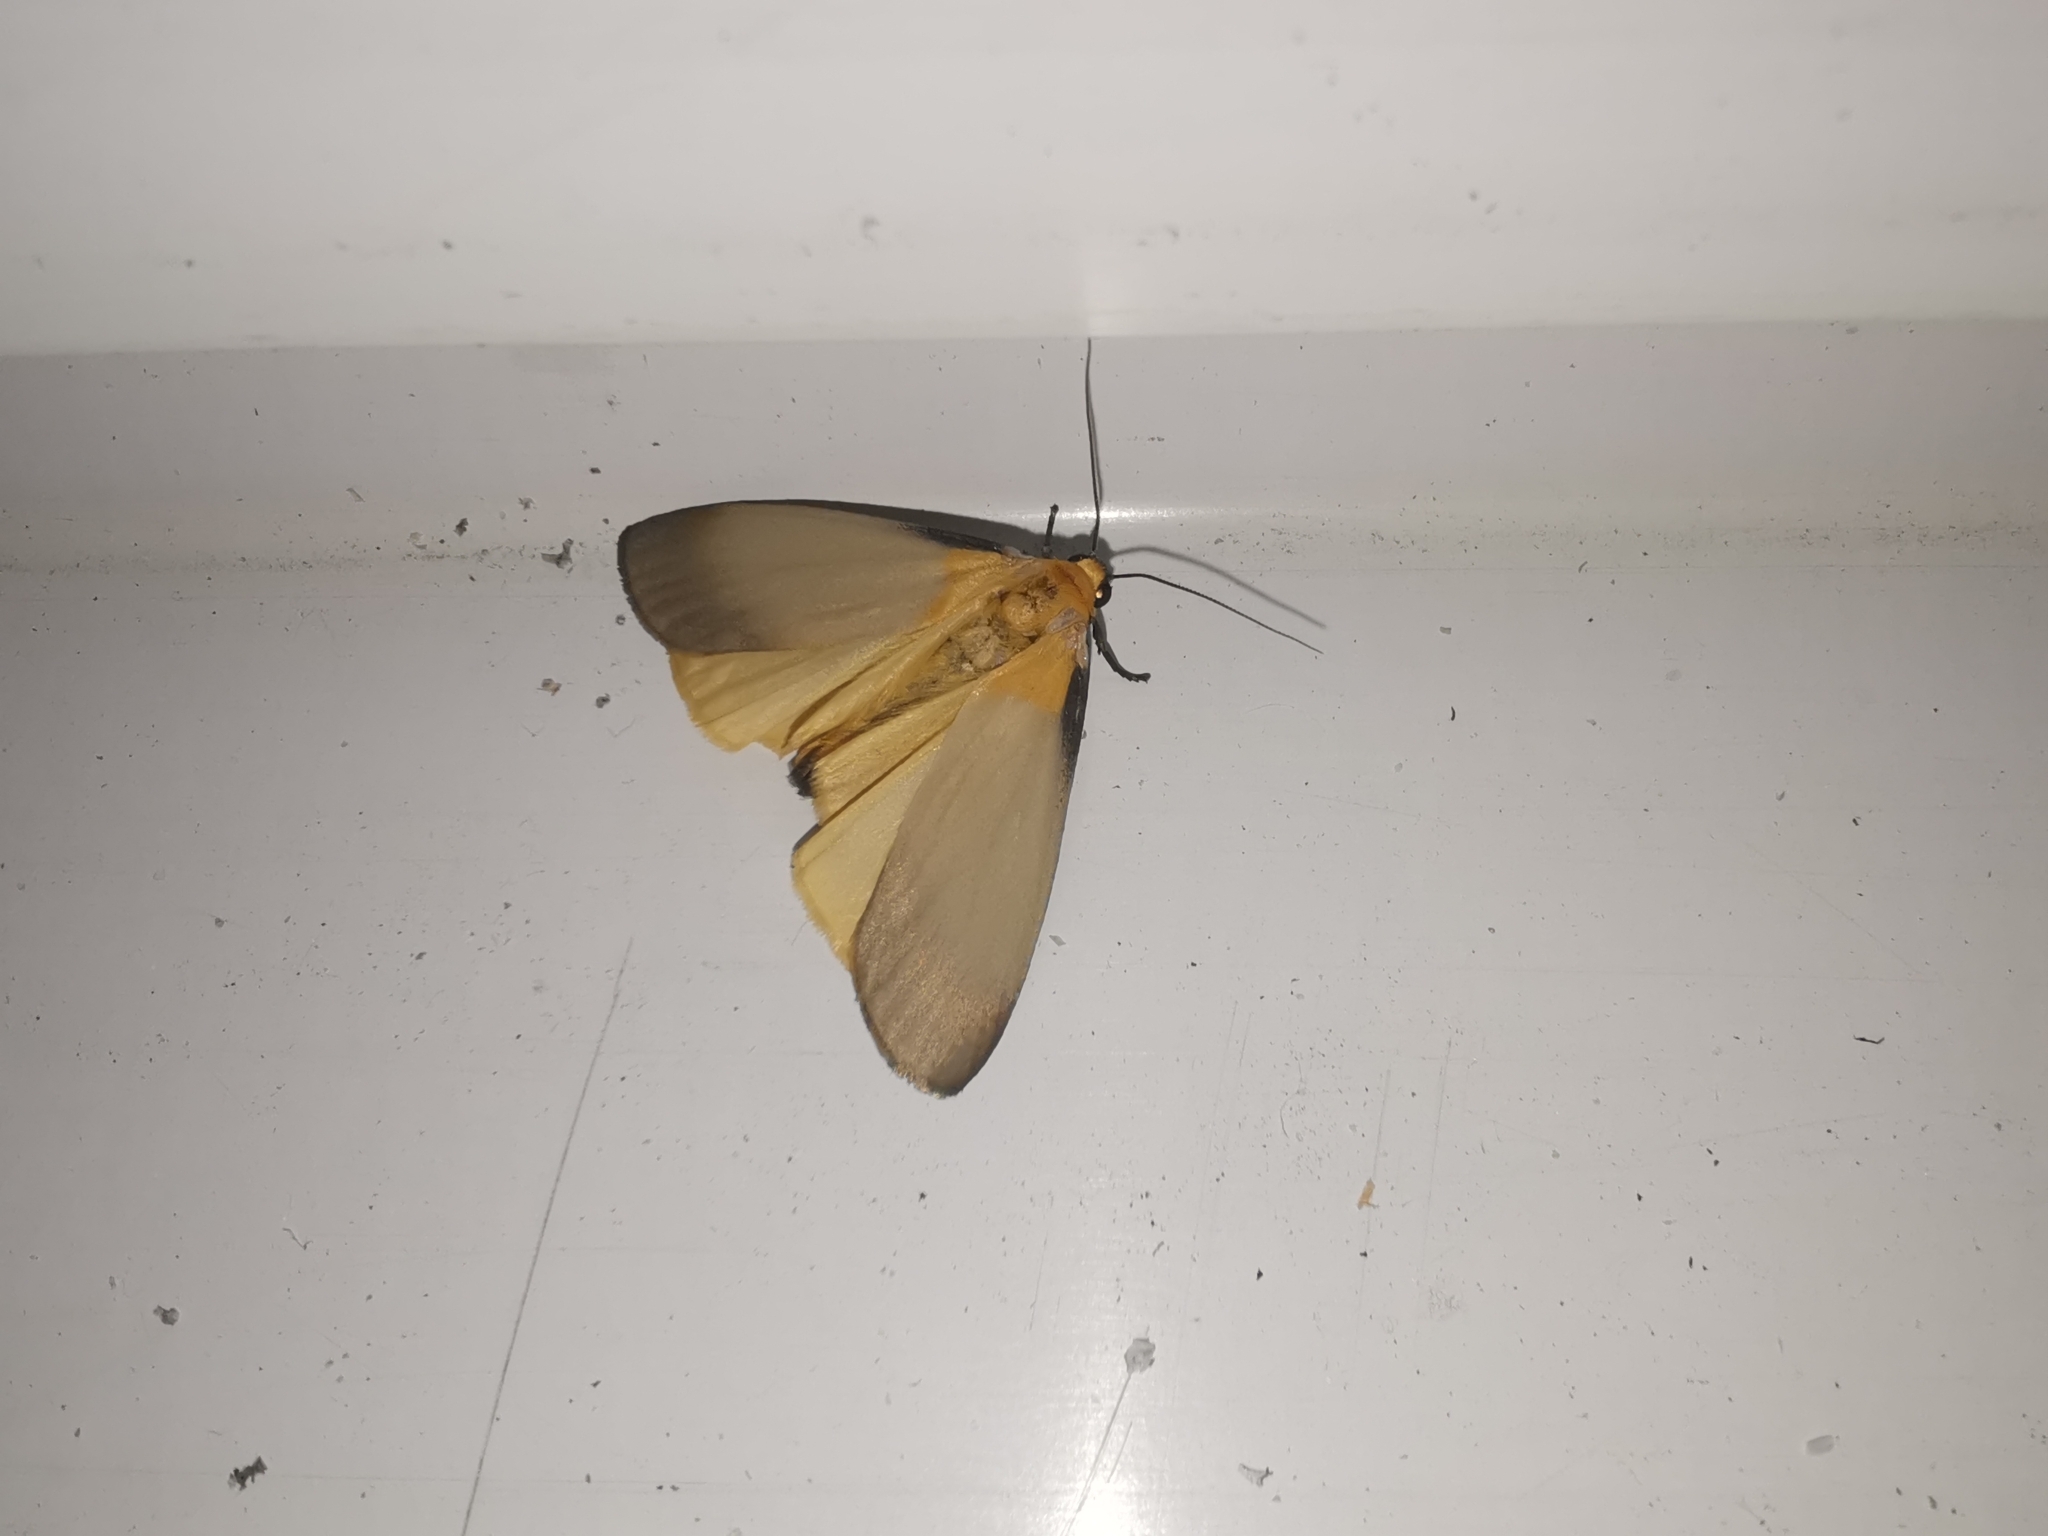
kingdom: Animalia
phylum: Arthropoda
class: Insecta
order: Lepidoptera
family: Erebidae
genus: Lithosia
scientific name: Lithosia quadra
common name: Four-spotted footman
